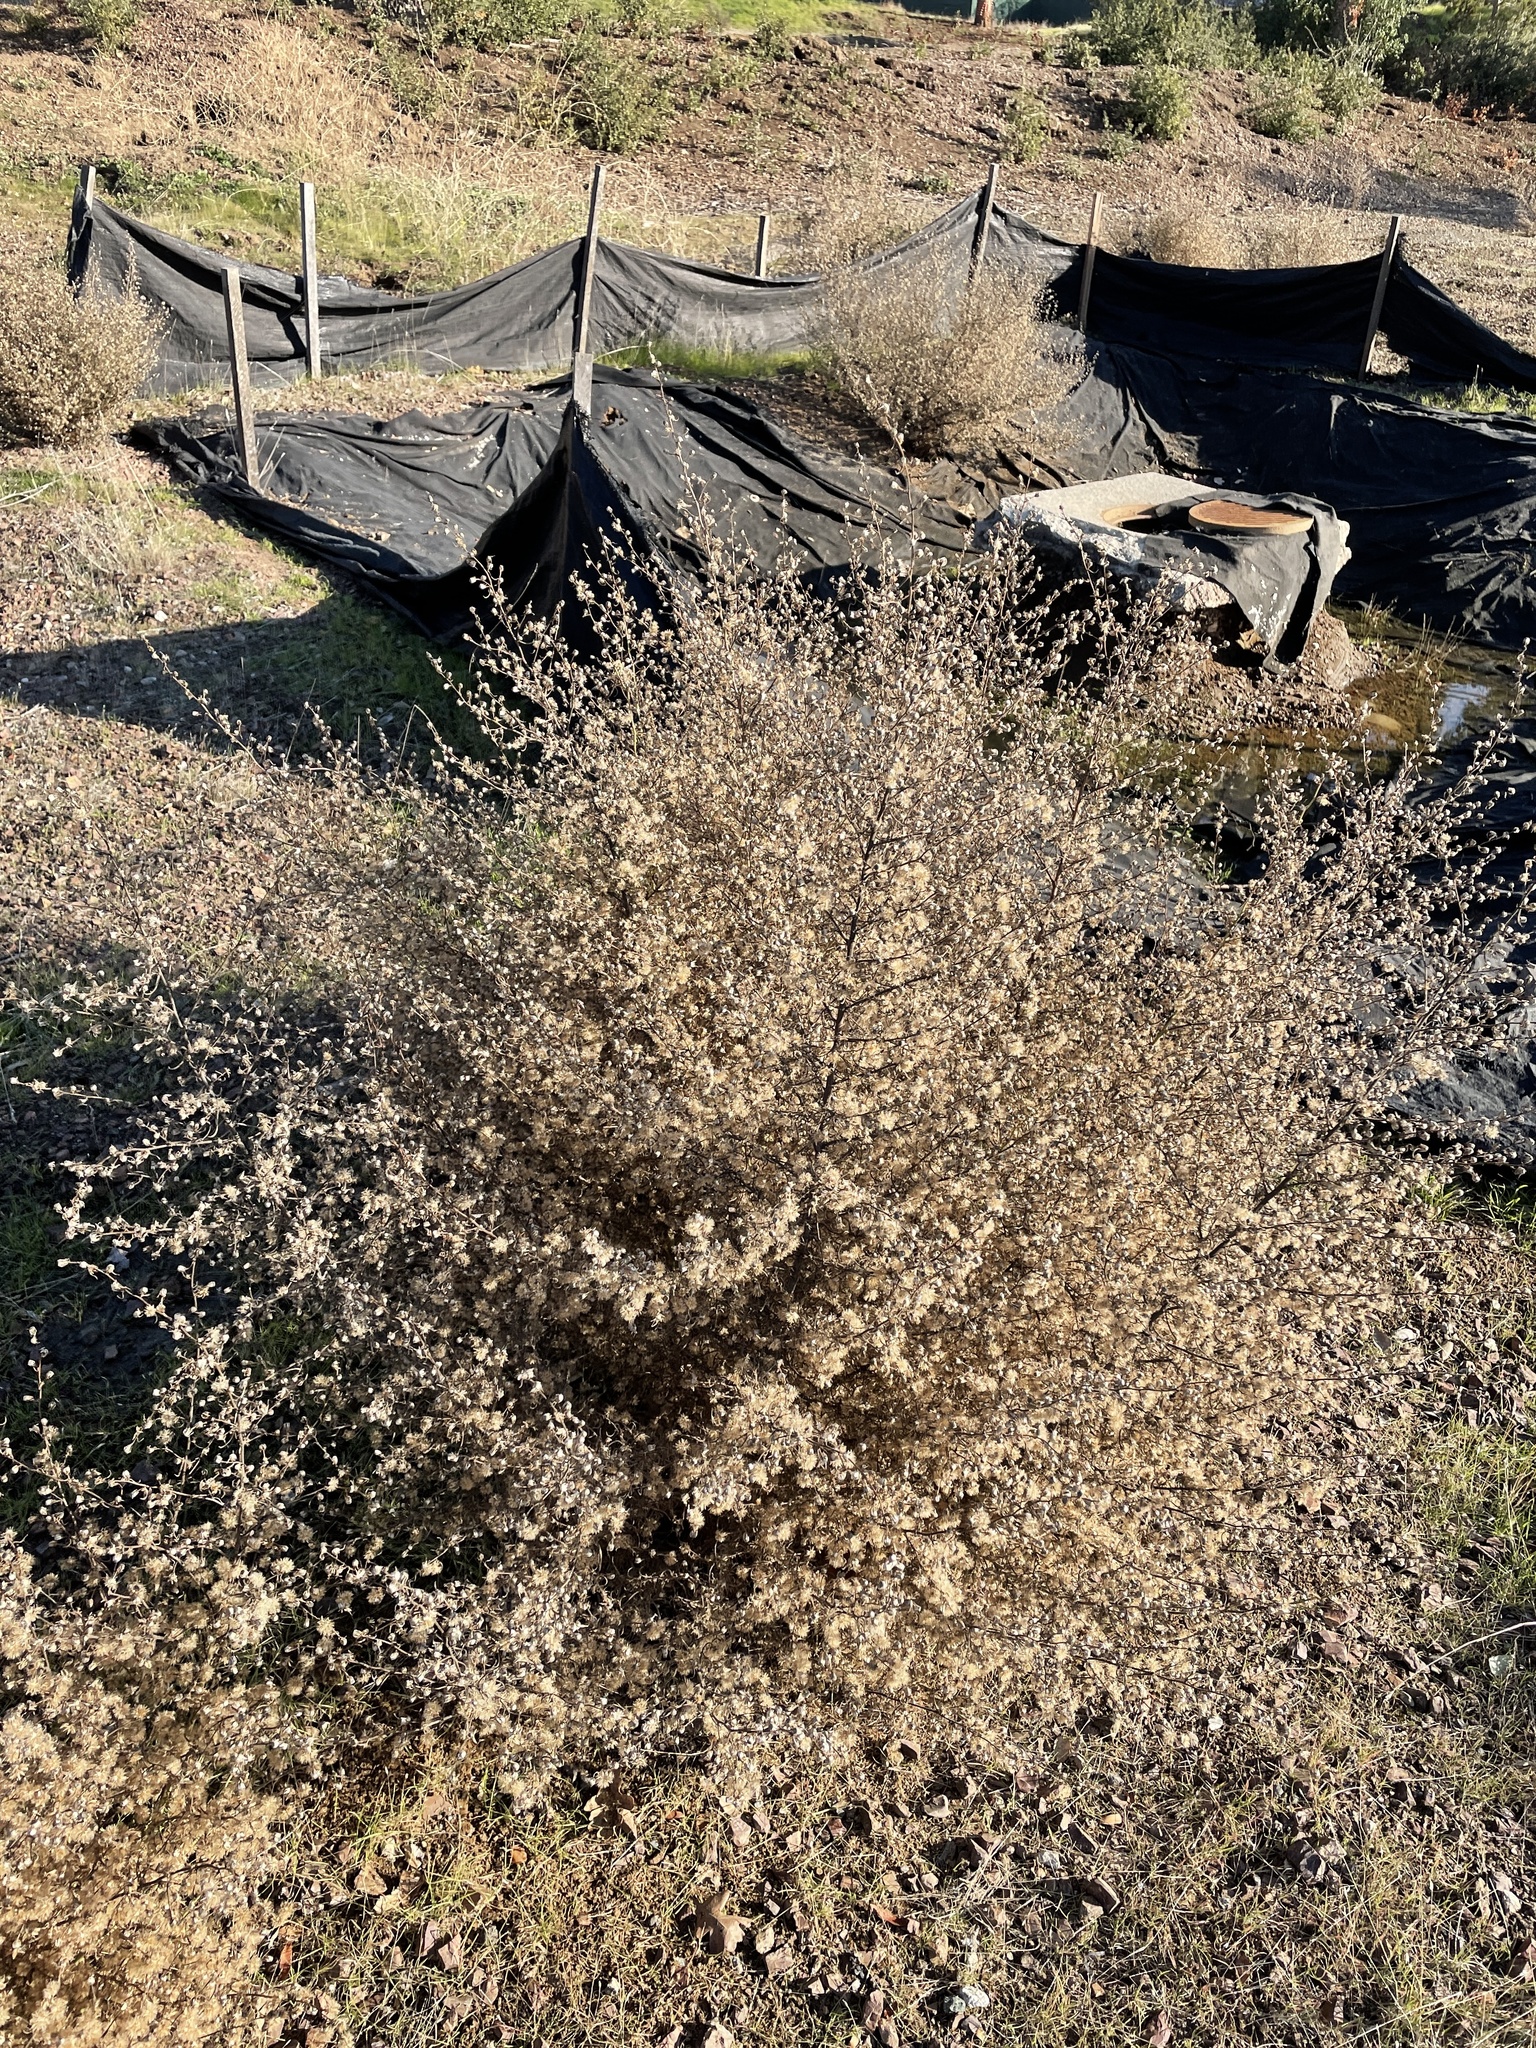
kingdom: Plantae
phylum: Tracheophyta
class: Magnoliopsida
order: Asterales
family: Asteraceae
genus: Dittrichia
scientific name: Dittrichia graveolens
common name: Stinking fleabane
